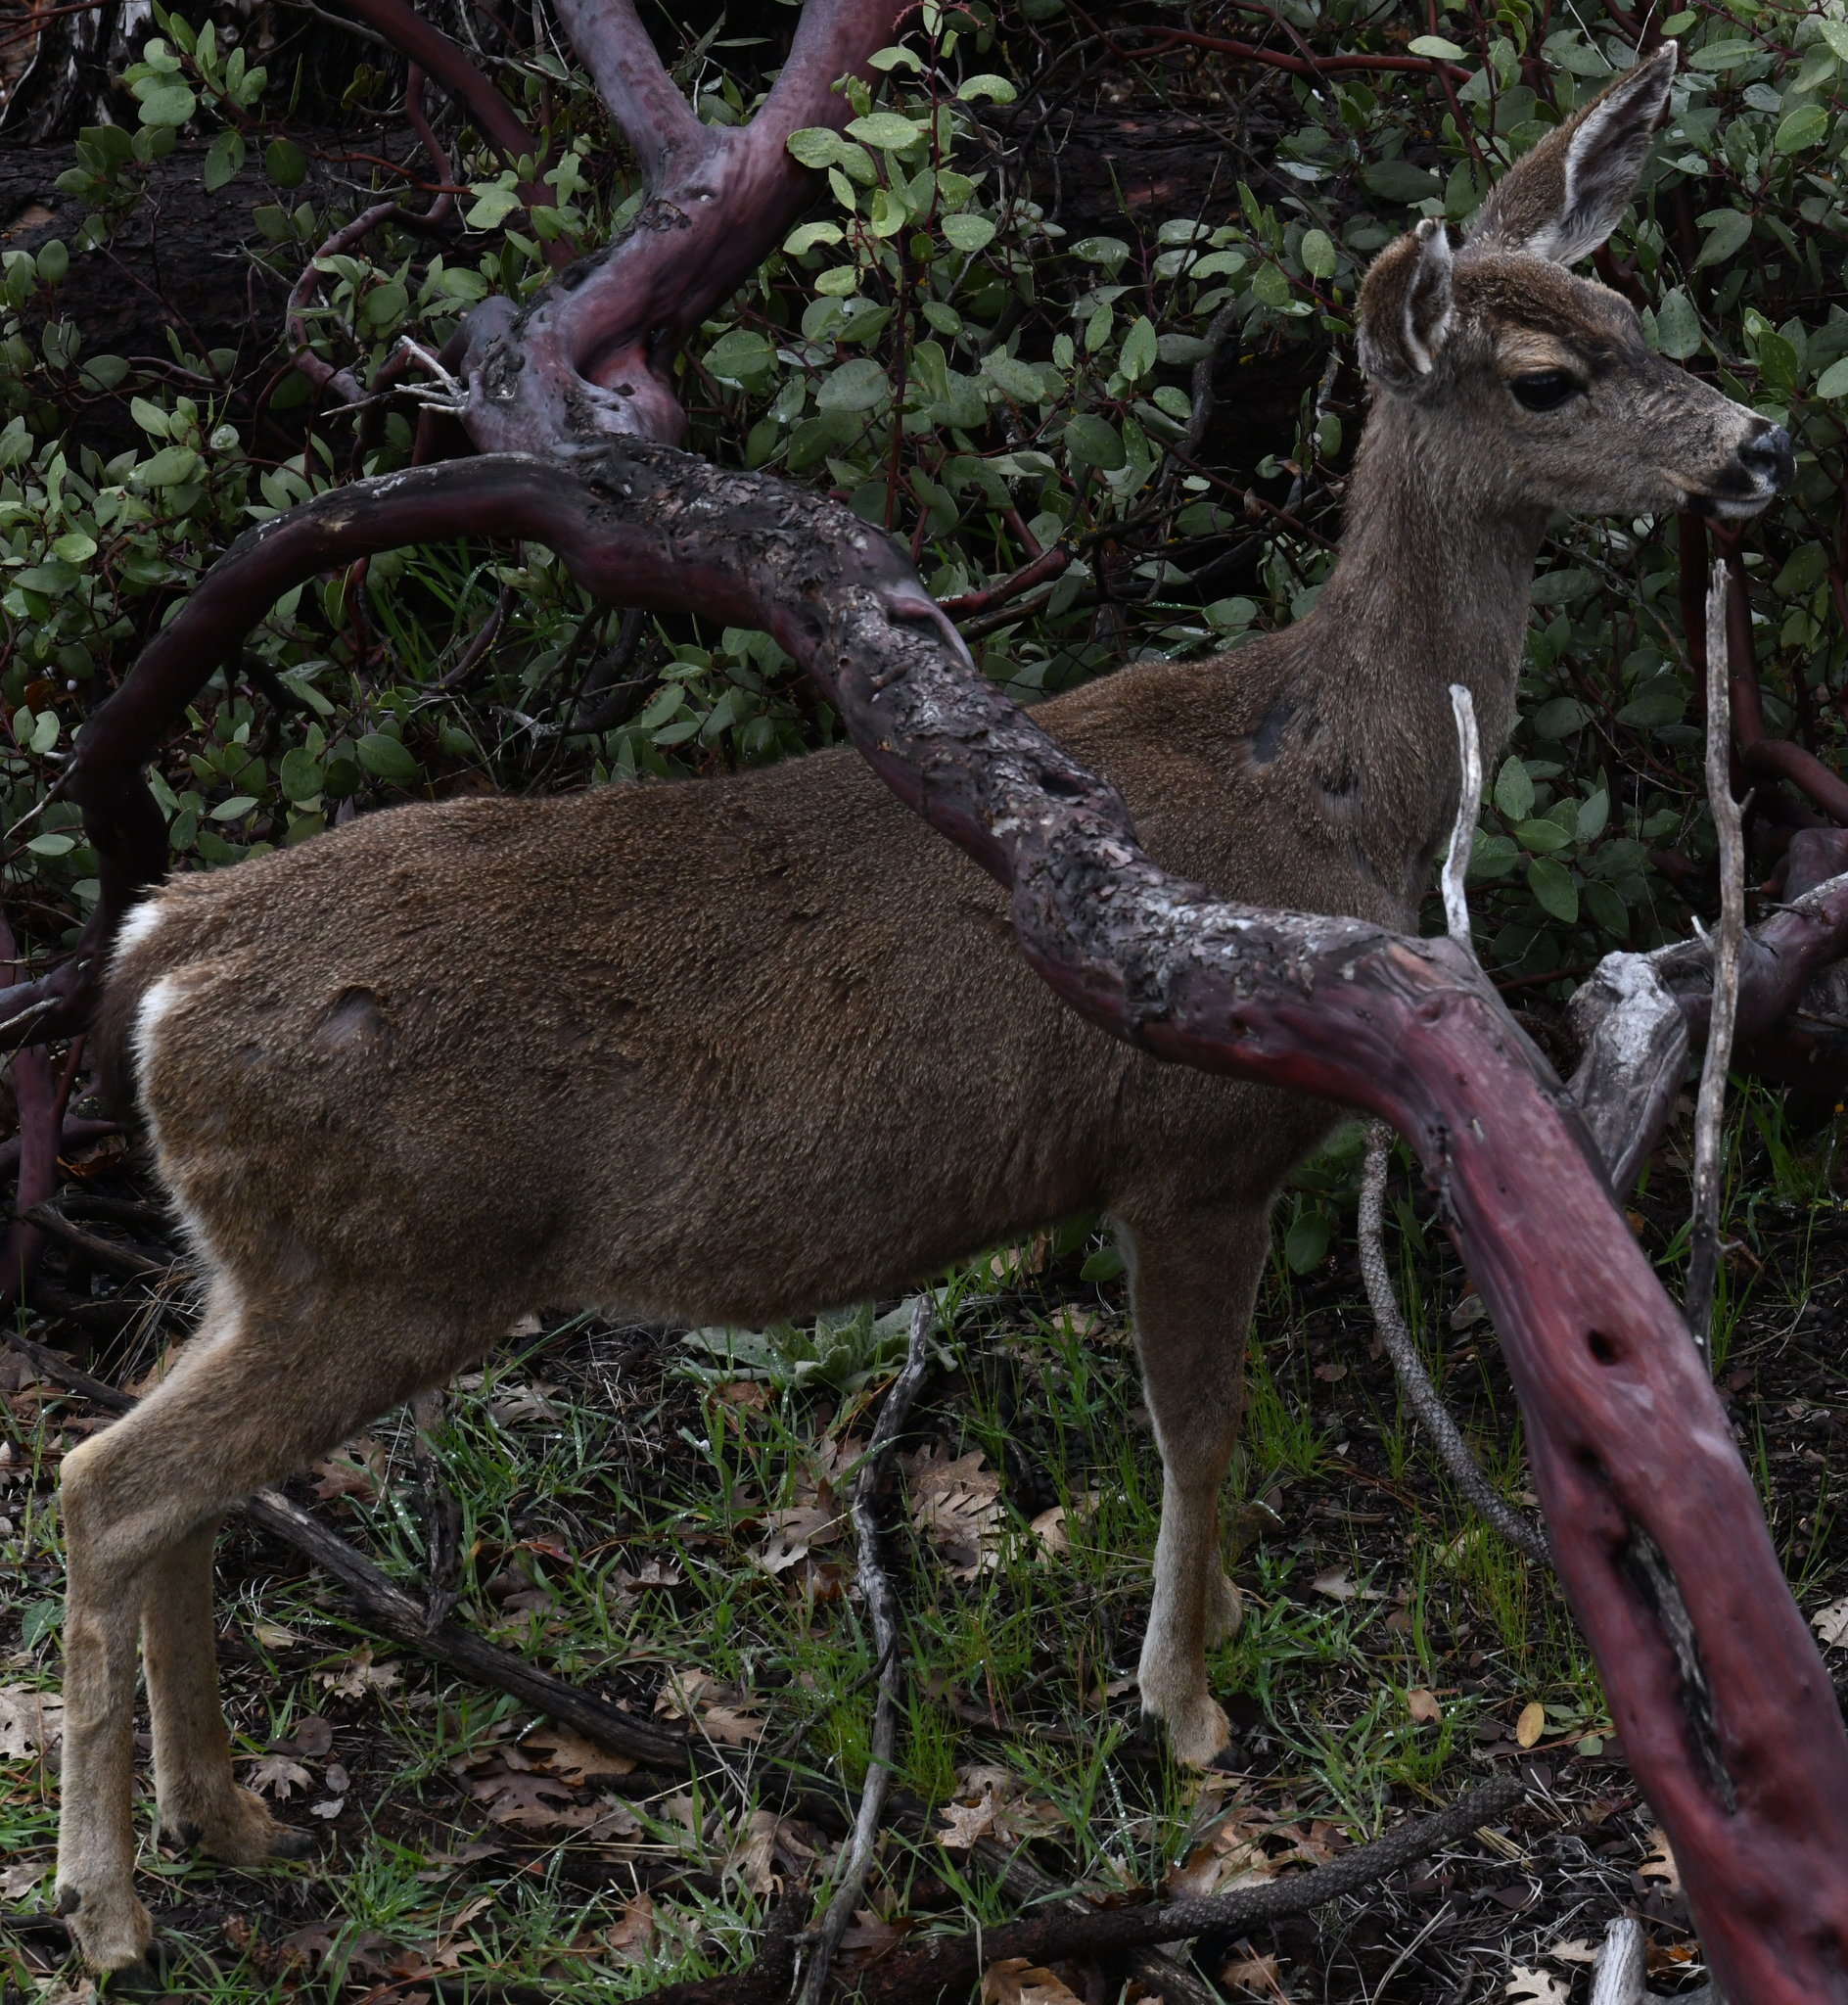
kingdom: Animalia
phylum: Chordata
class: Mammalia
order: Artiodactyla
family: Cervidae
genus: Odocoileus
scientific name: Odocoileus hemionus
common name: Mule deer
